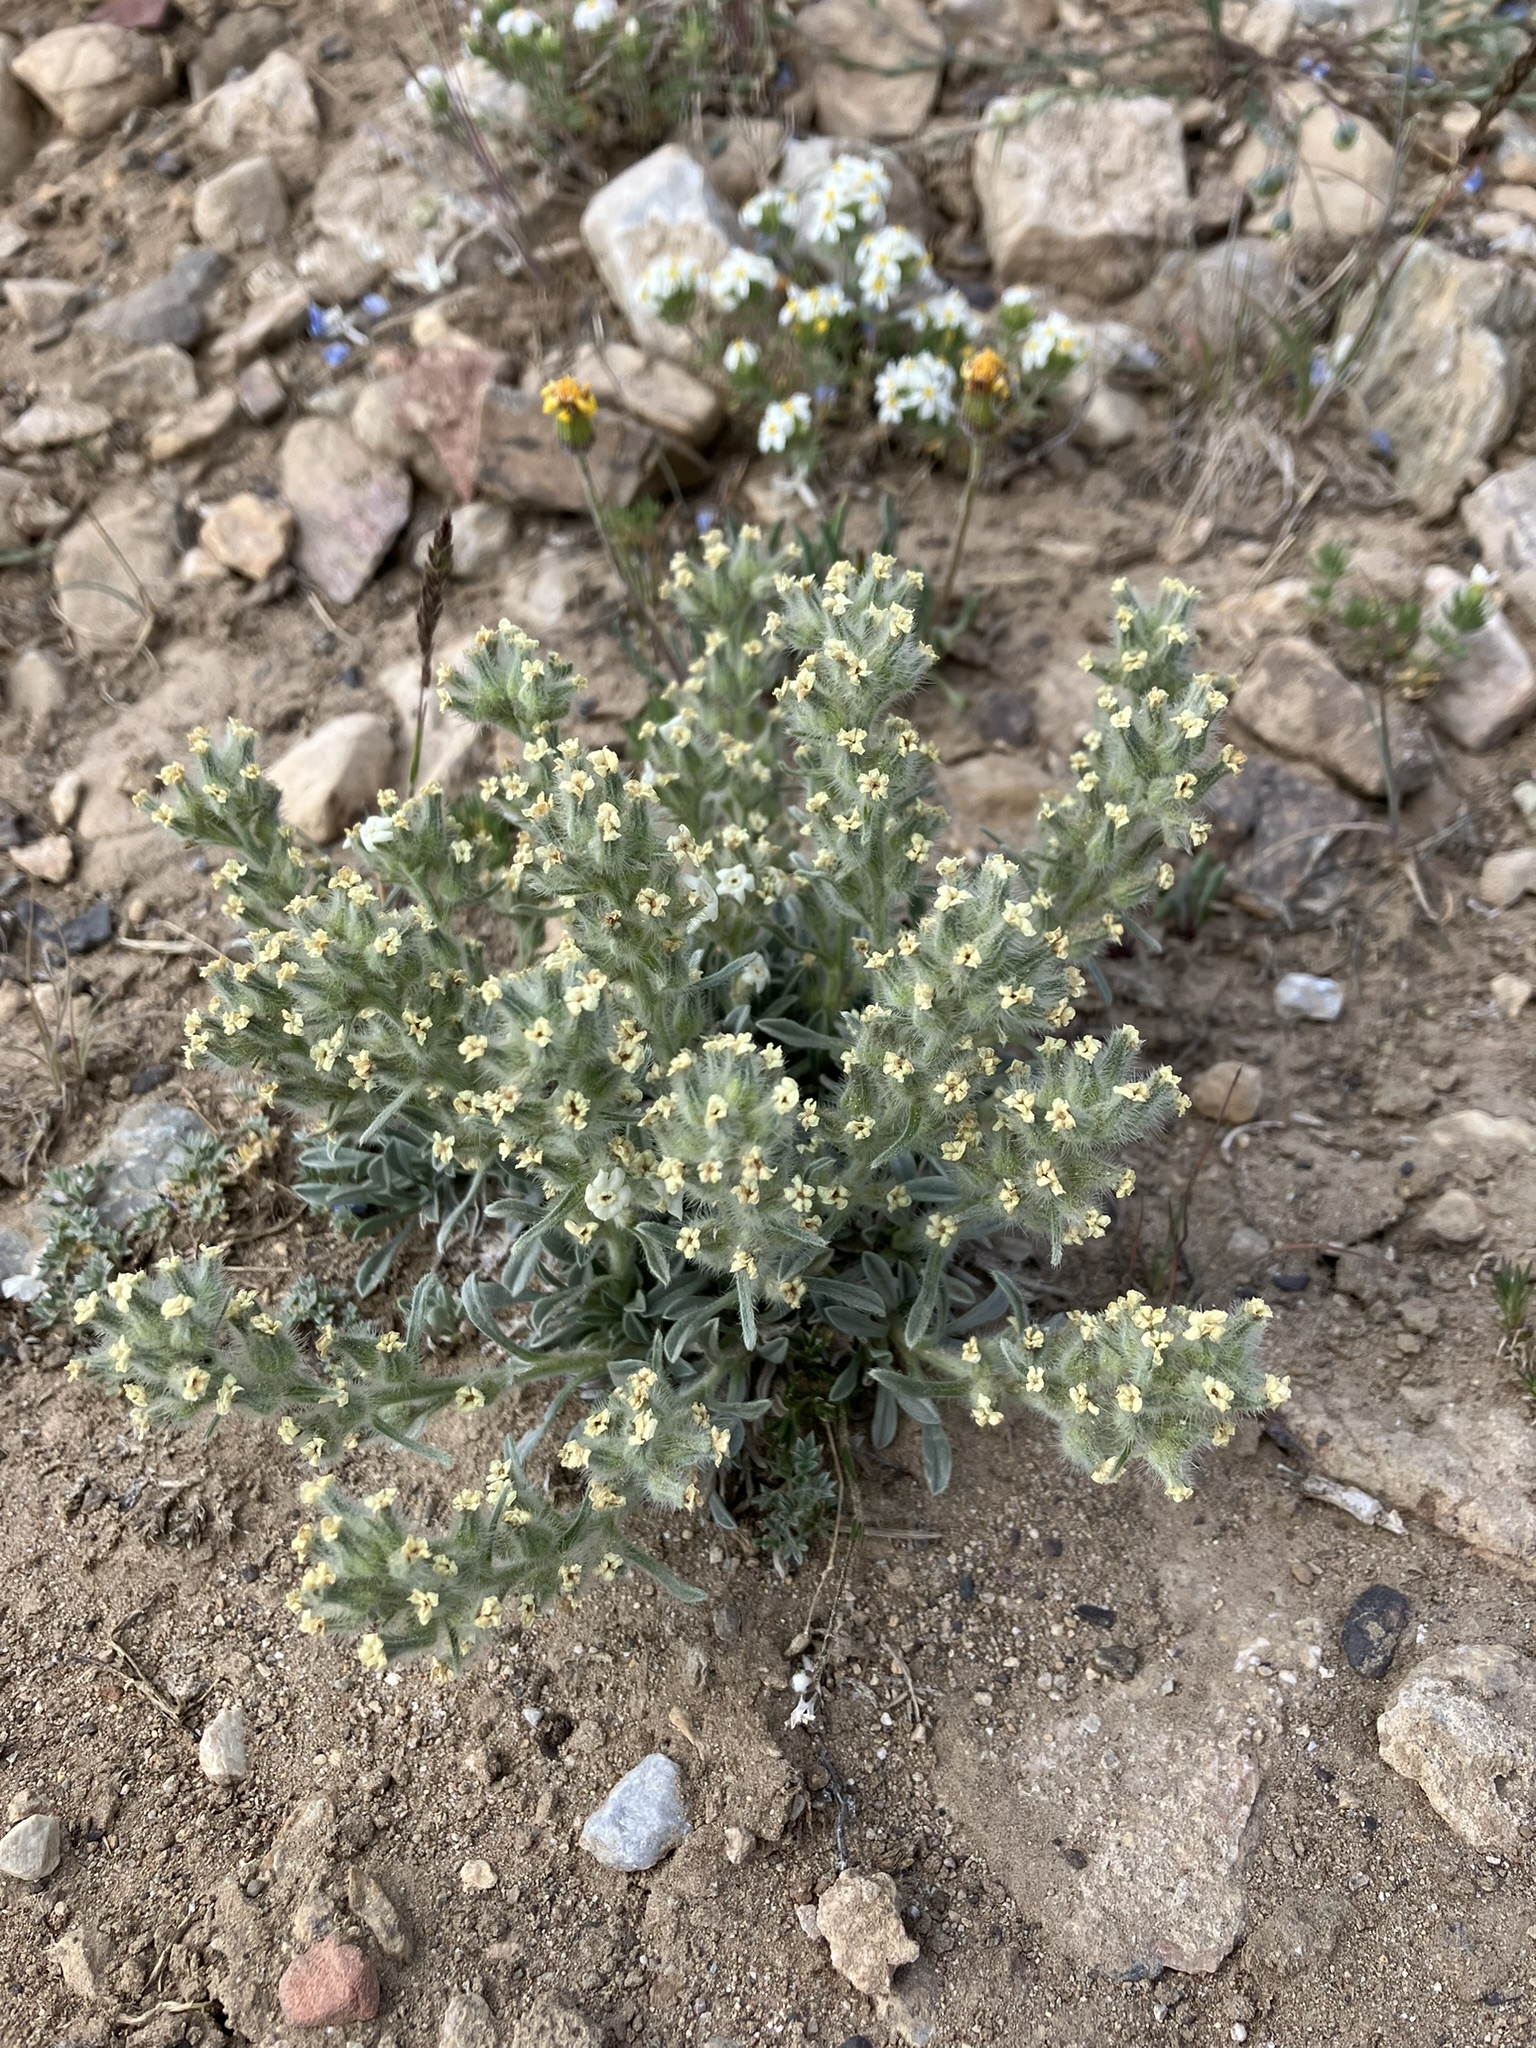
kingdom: Plantae
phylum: Tracheophyta
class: Magnoliopsida
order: Boraginales
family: Boraginaceae
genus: Oreocarya
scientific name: Oreocarya humilis
